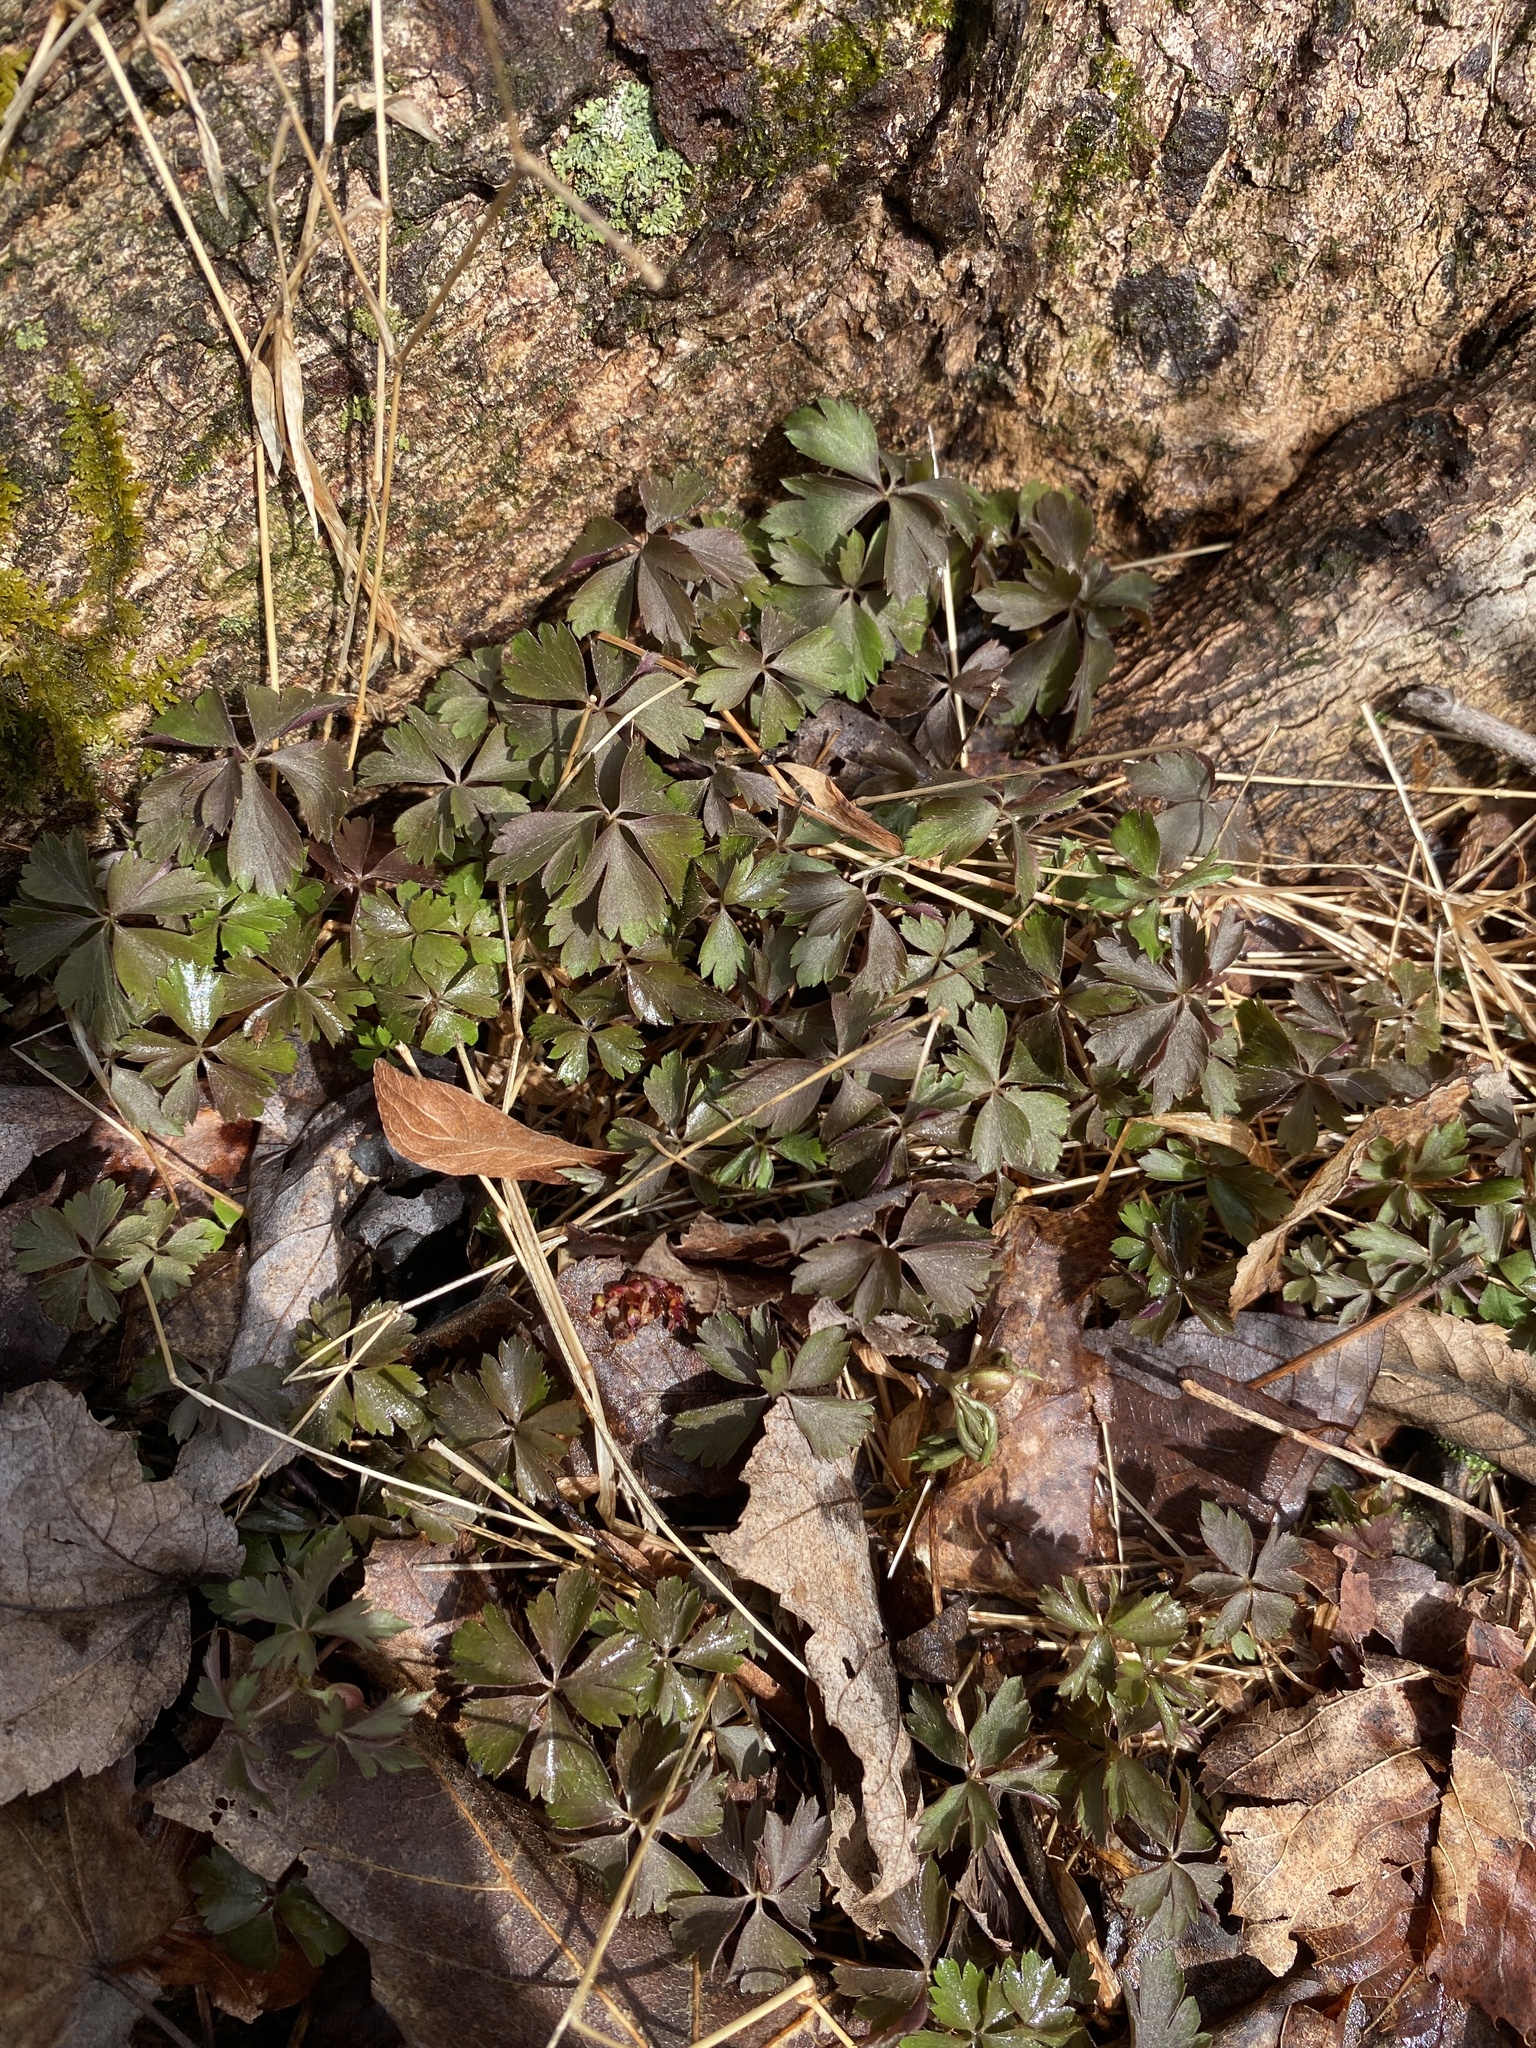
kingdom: Plantae
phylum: Tracheophyta
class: Magnoliopsida
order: Ranunculales
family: Ranunculaceae
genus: Anemone
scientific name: Anemone quinquefolia
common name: Wood anemone
